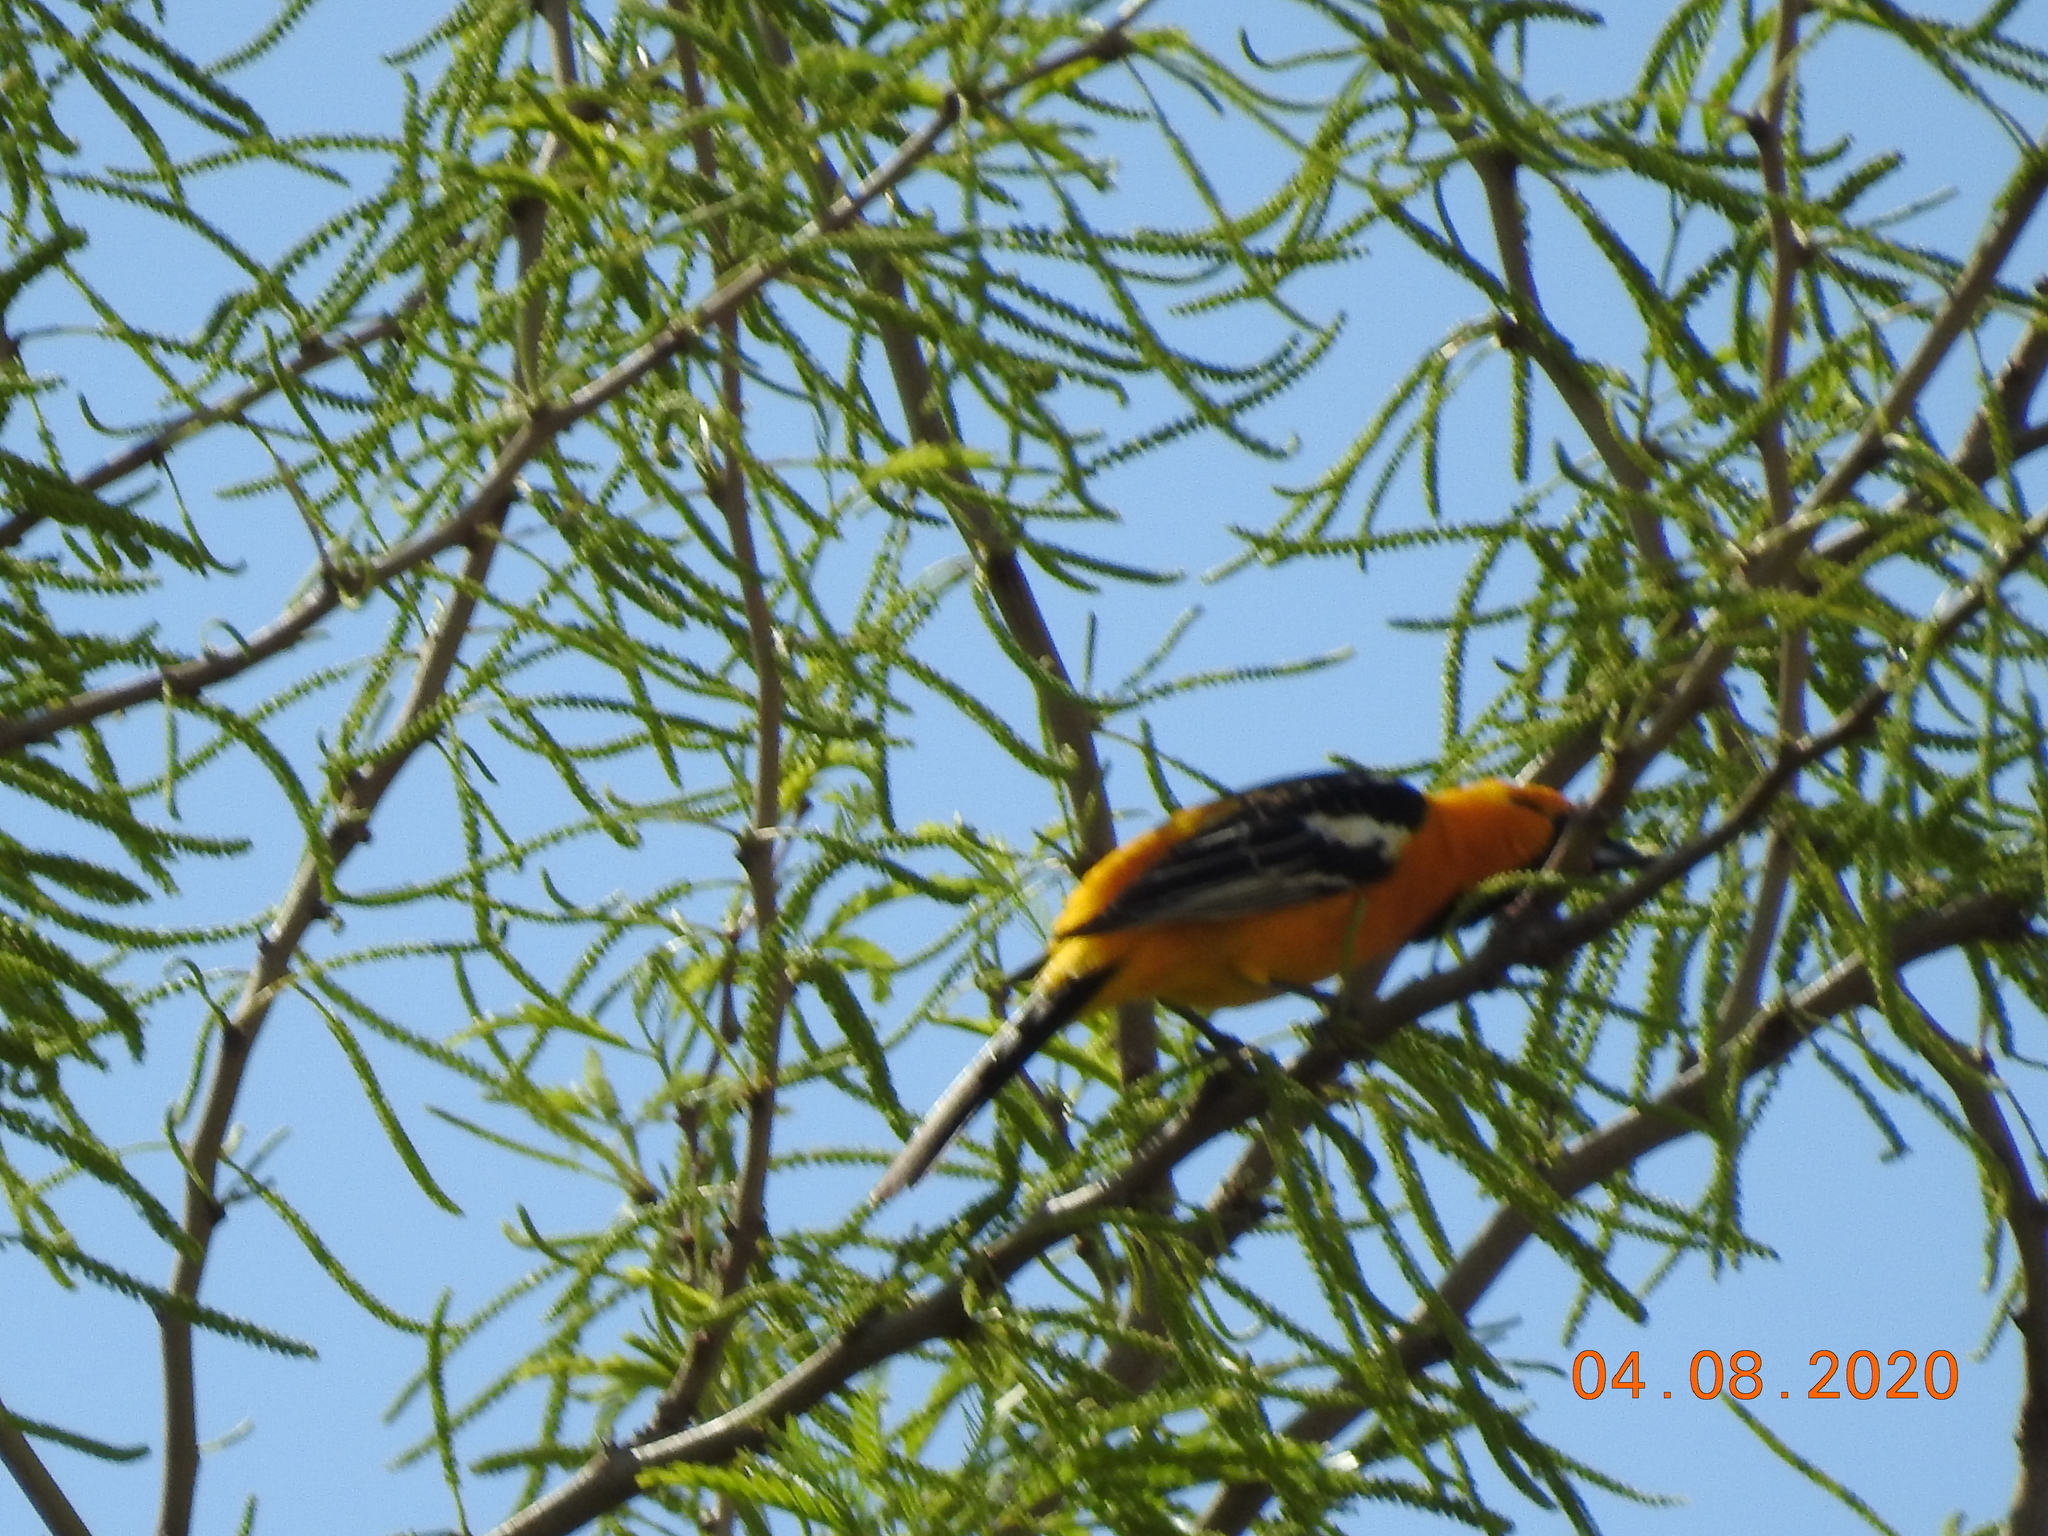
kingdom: Animalia
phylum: Chordata
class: Aves
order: Passeriformes
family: Icteridae
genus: Icterus
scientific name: Icterus cucullatus
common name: Hooded oriole
